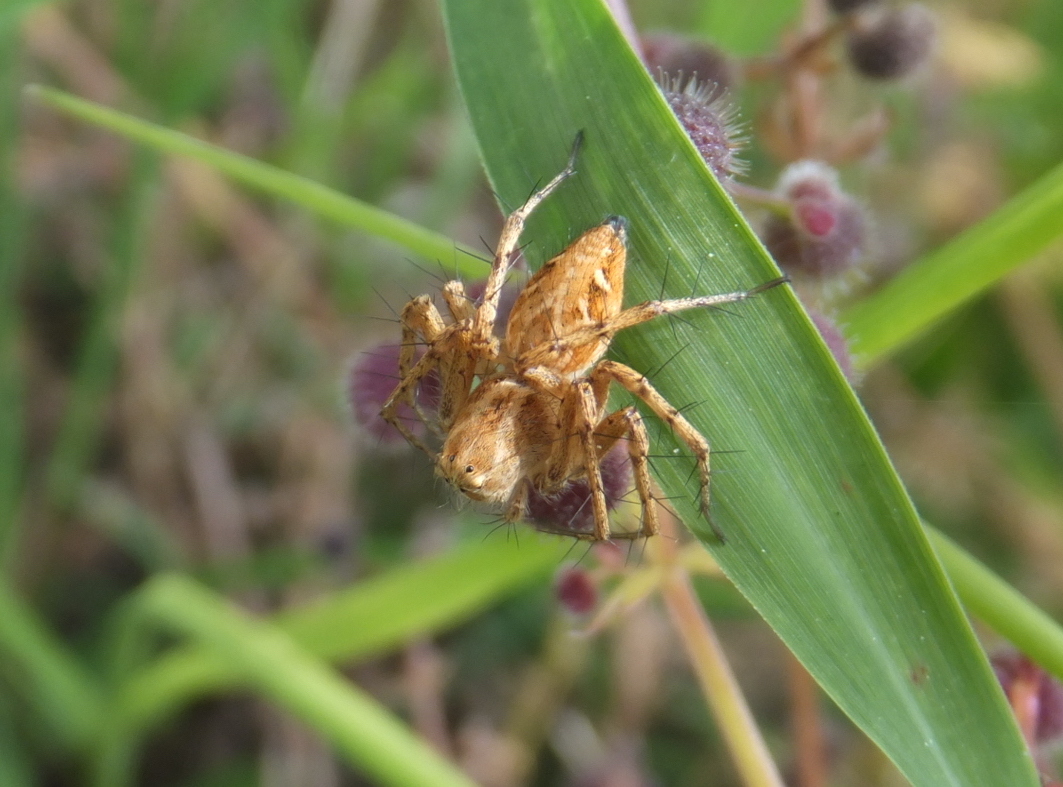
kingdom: Animalia
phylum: Arthropoda
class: Arachnida
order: Araneae
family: Oxyopidae
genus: Oxyopes
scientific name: Oxyopes heterophthalmus
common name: Lynx spider
